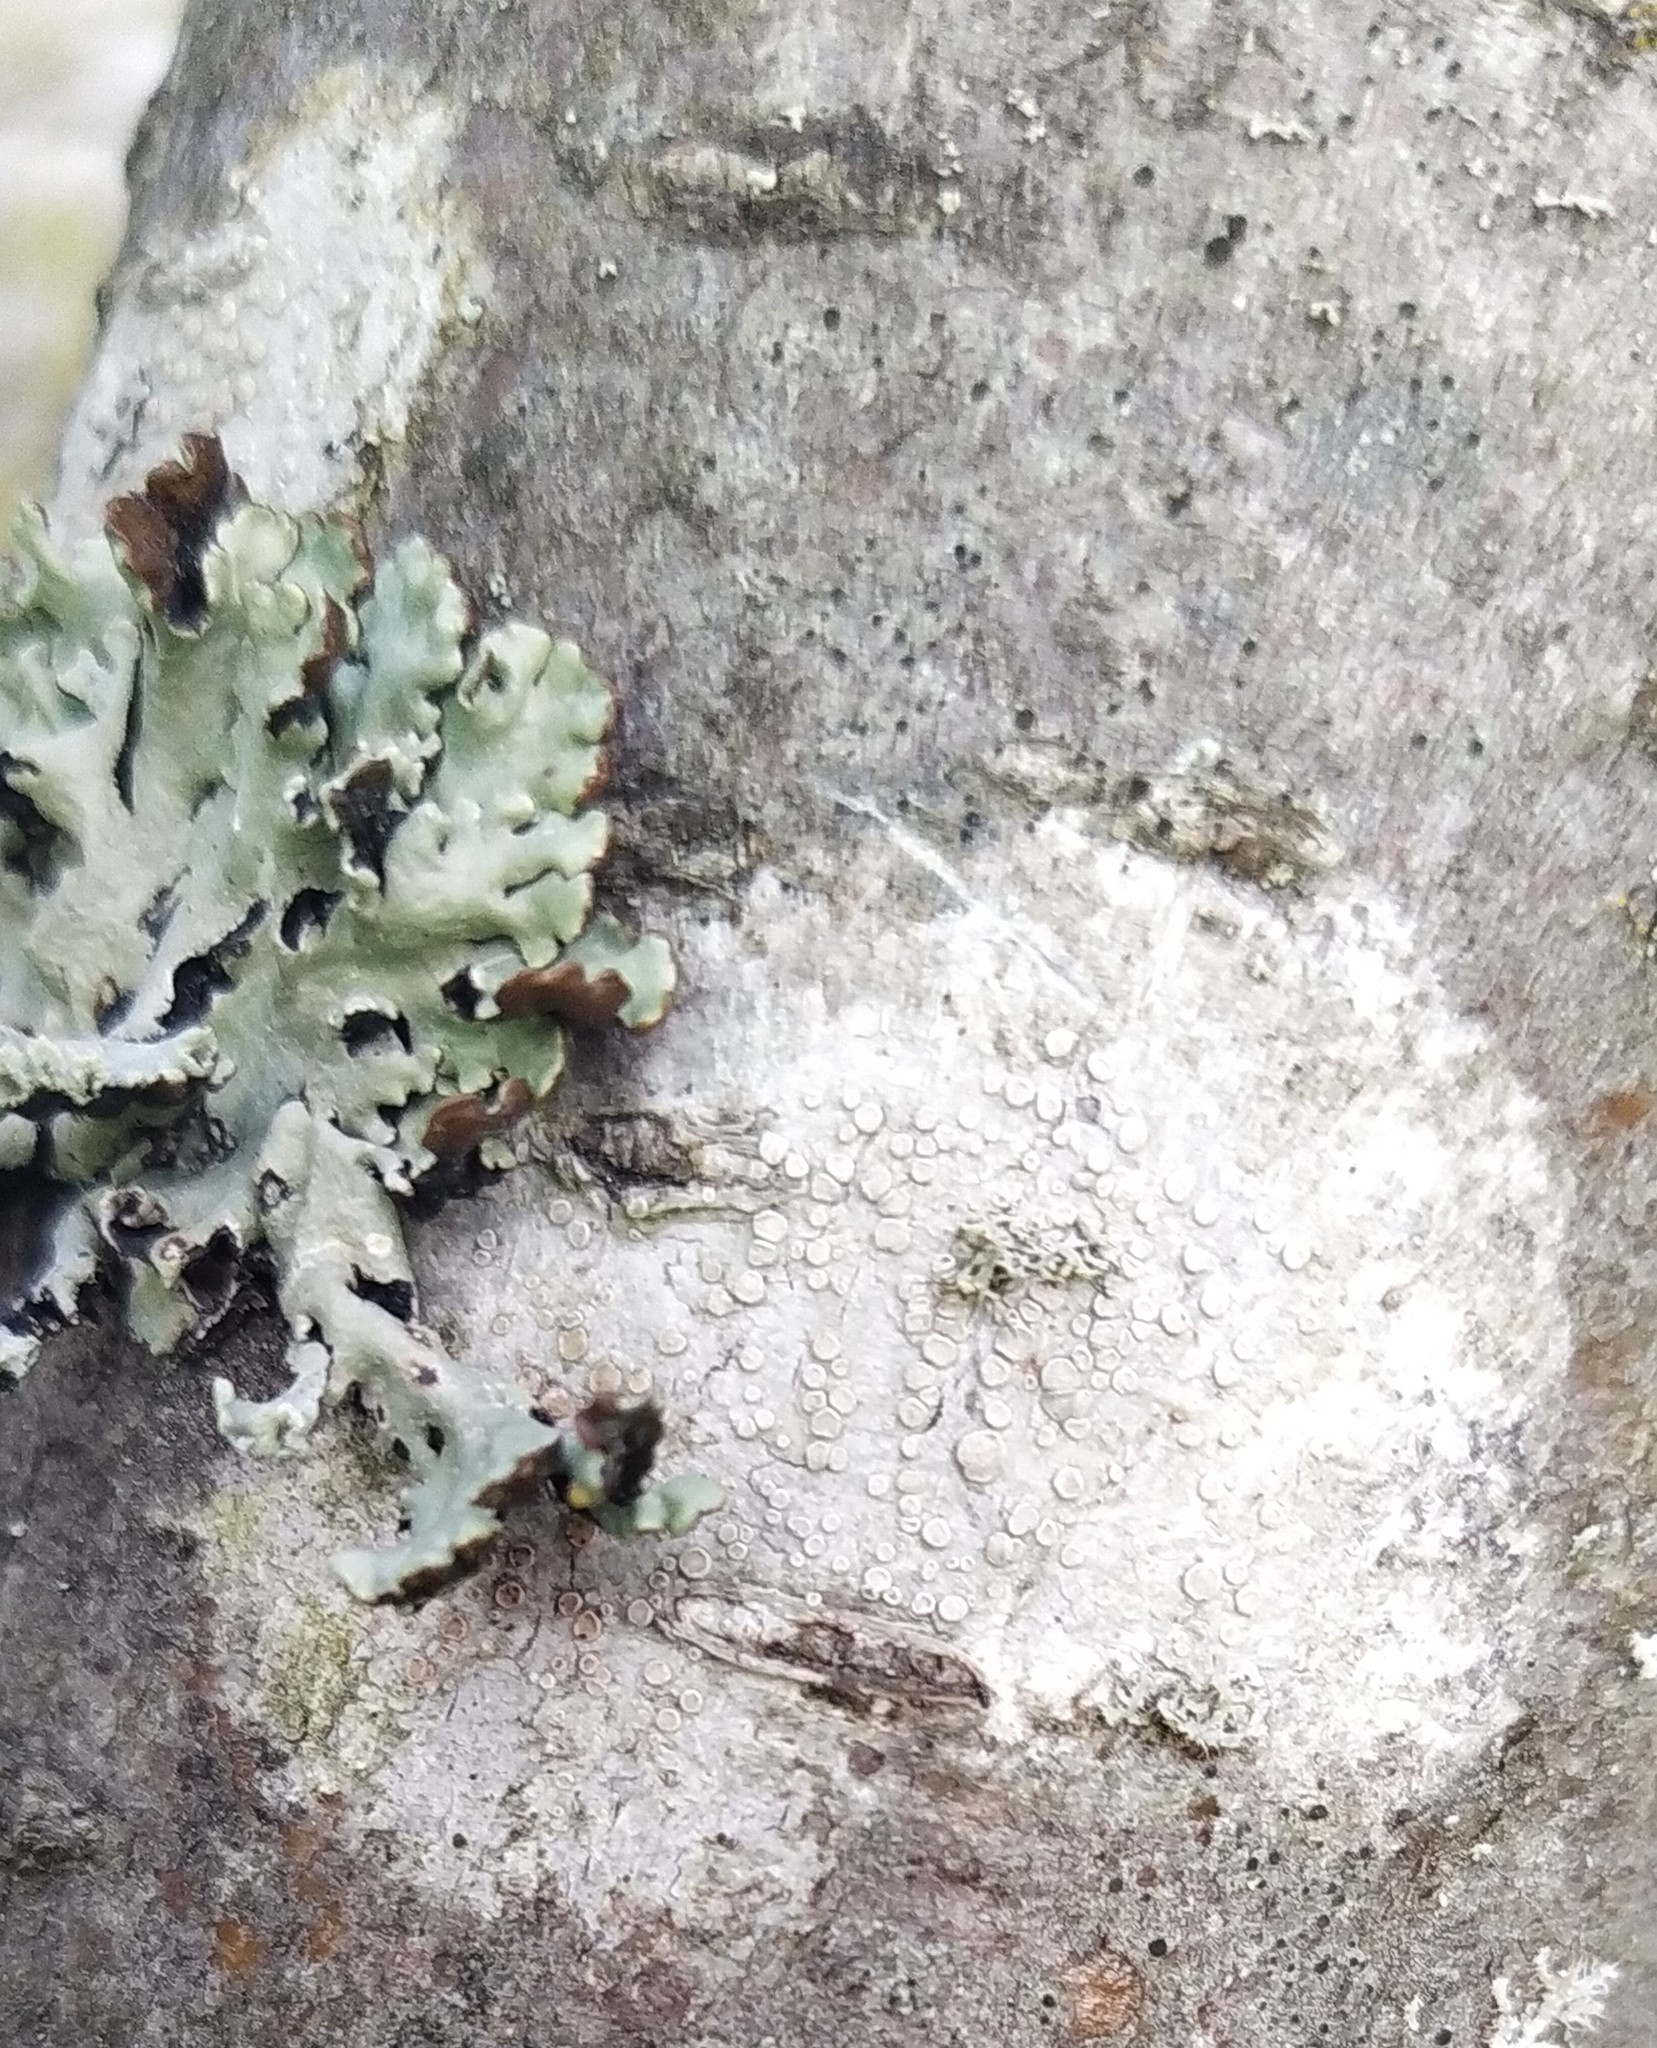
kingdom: Fungi
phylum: Ascomycota
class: Lecanoromycetes
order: Lecanorales
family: Lecanoraceae
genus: Glaucomaria
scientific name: Glaucomaria carpinea
